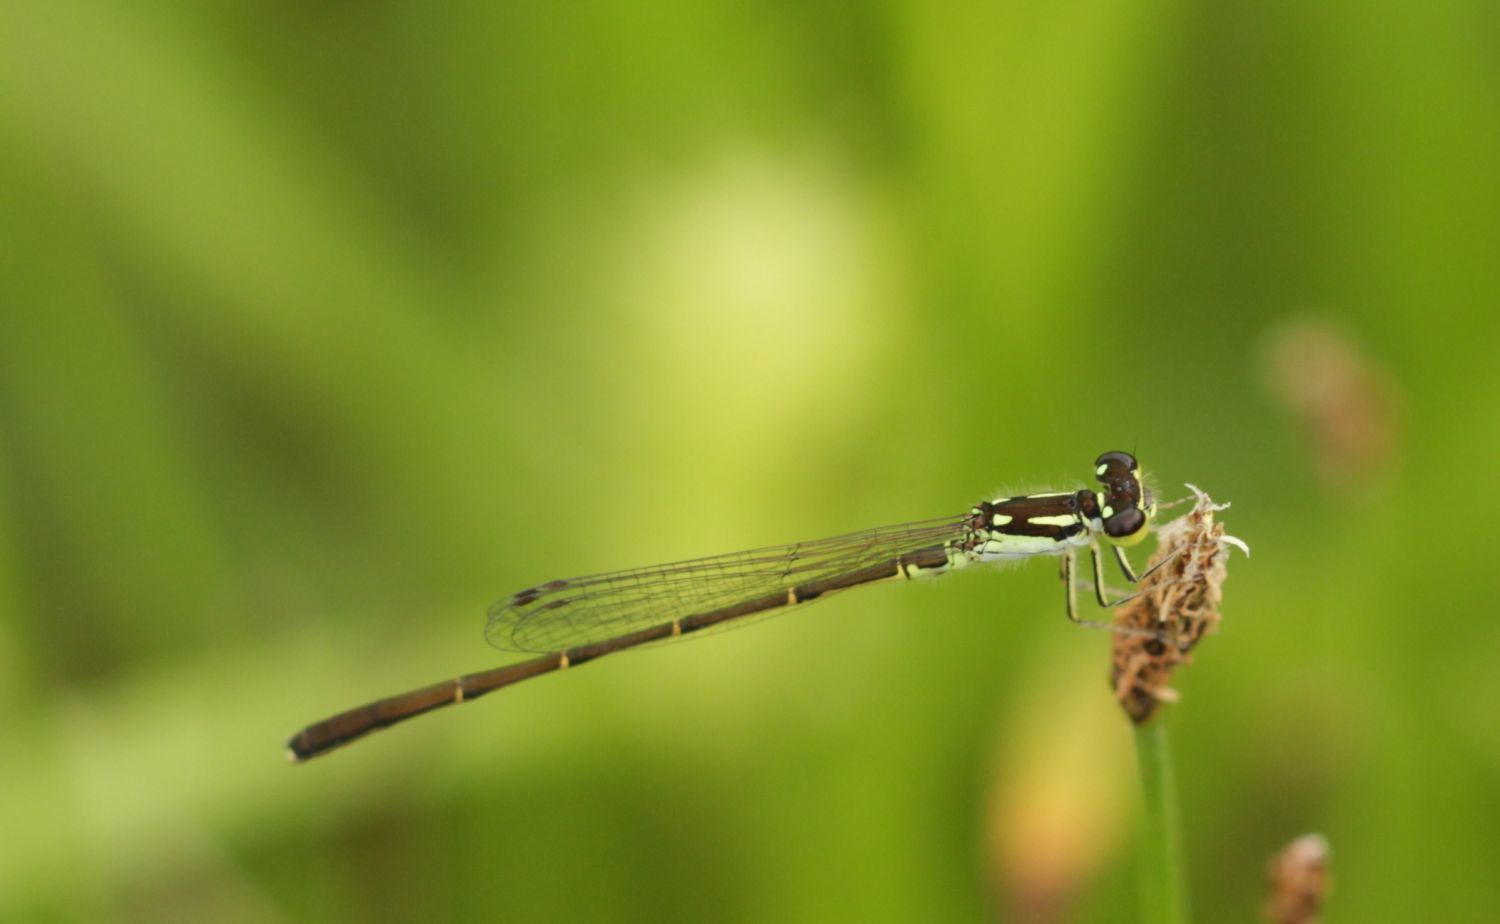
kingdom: Animalia
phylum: Arthropoda
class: Insecta
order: Odonata
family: Coenagrionidae
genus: Ischnura
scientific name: Ischnura posita
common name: Fragile forktail
